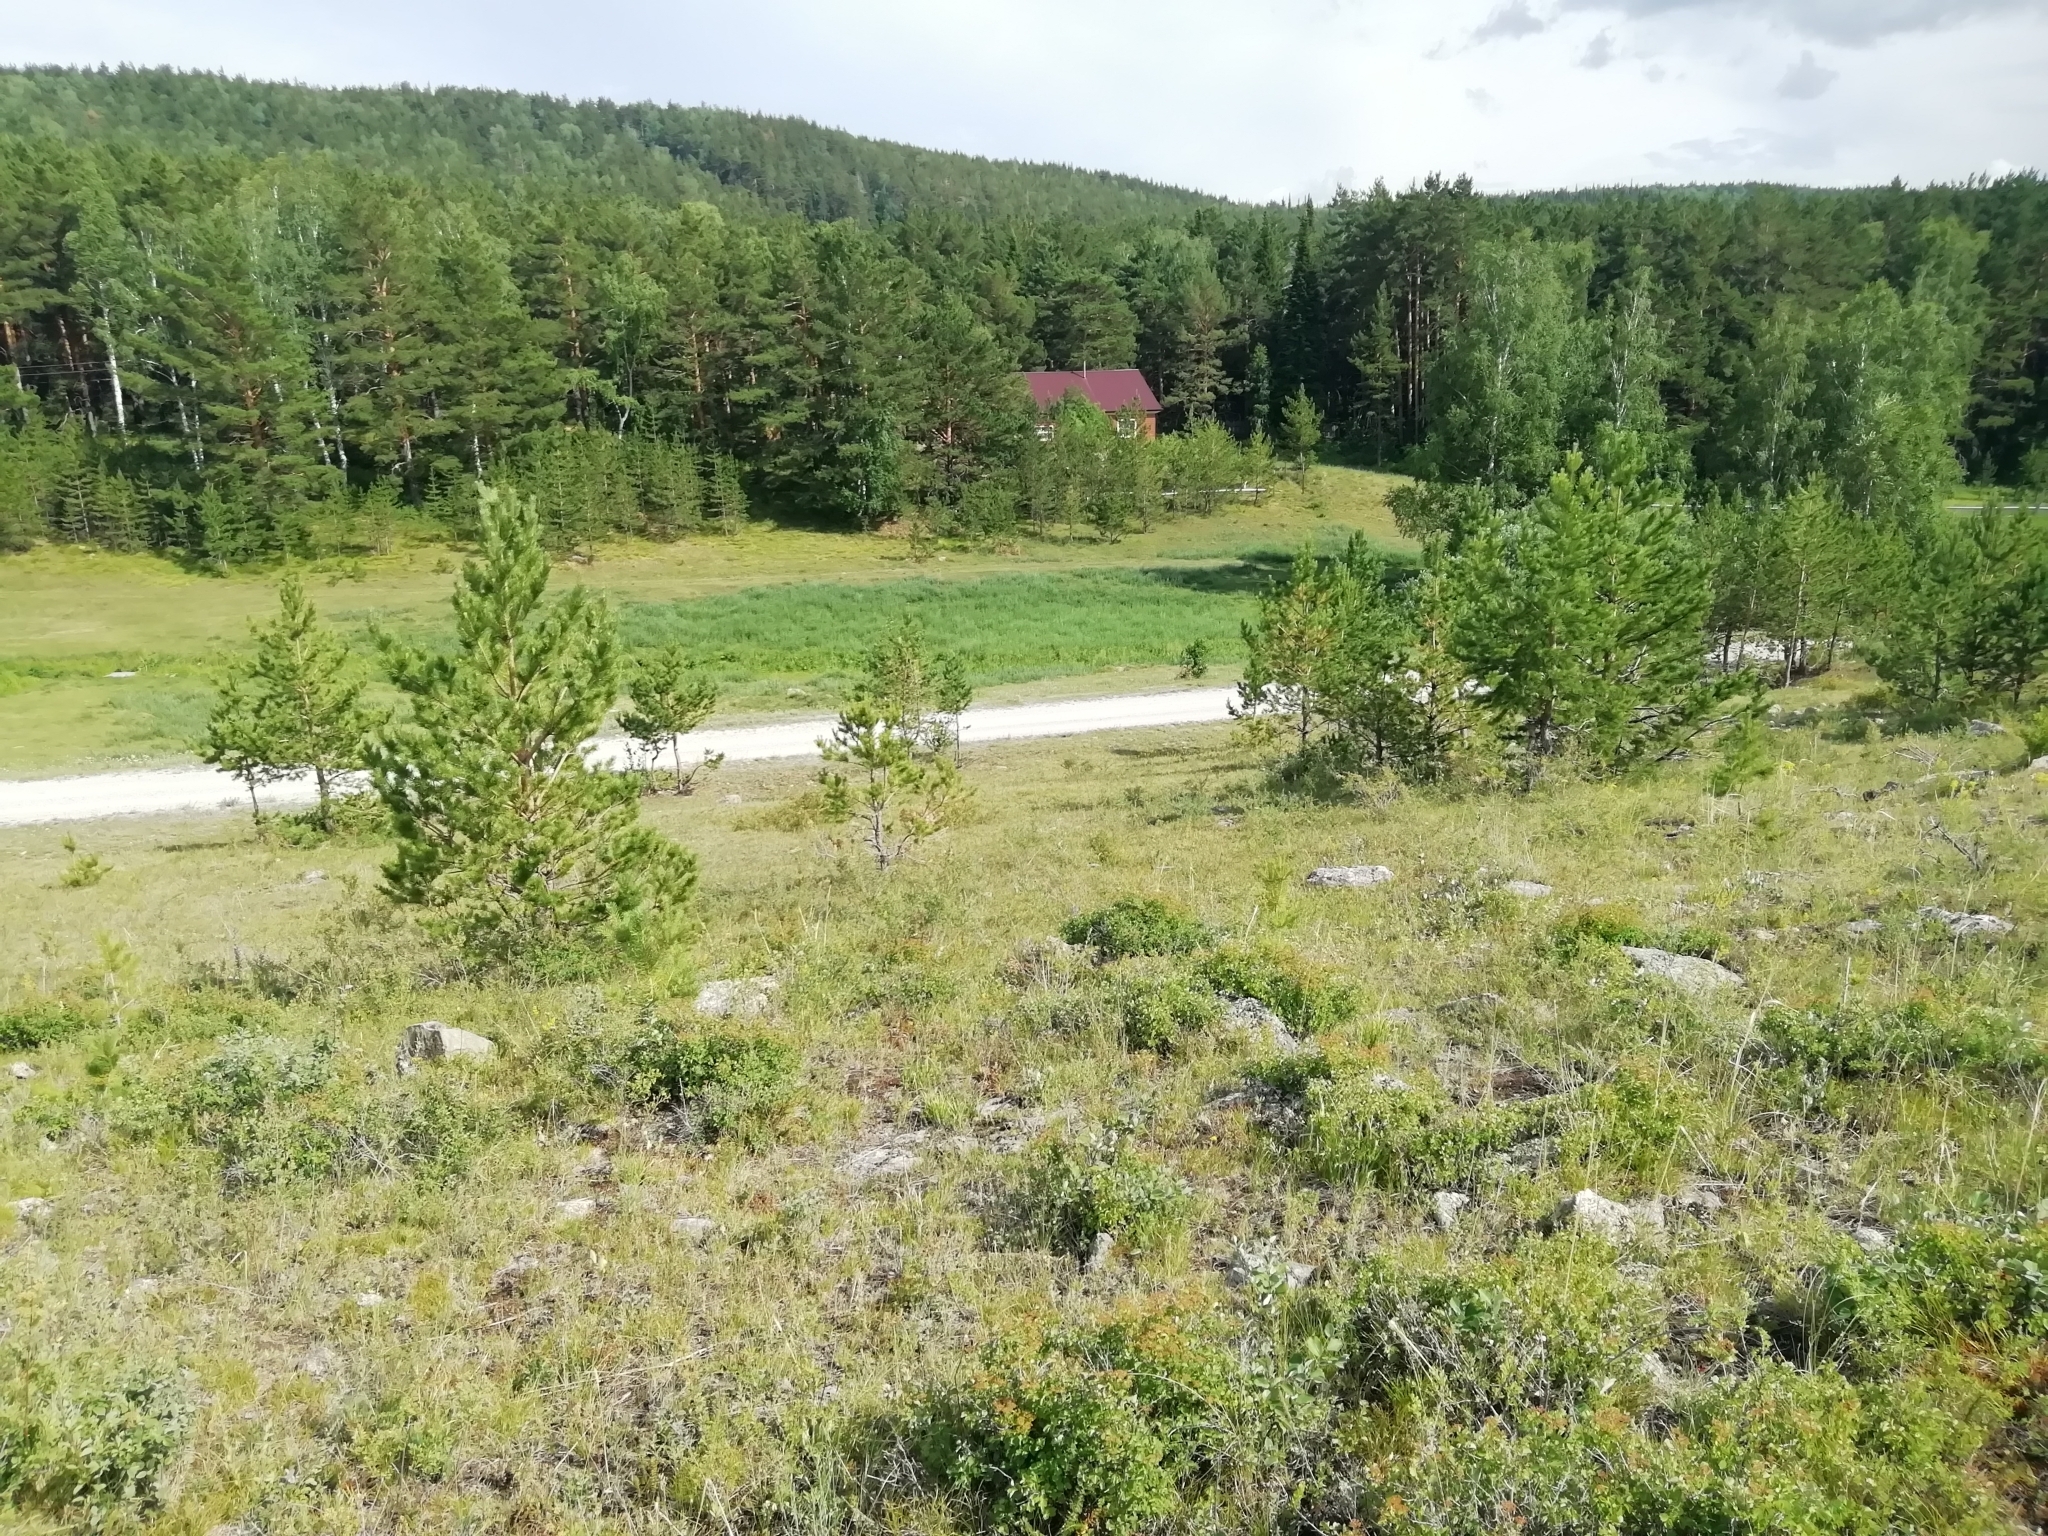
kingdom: Animalia
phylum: Arthropoda
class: Insecta
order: Orthoptera
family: Acrididae
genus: Podismopsis
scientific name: Podismopsis altaica
